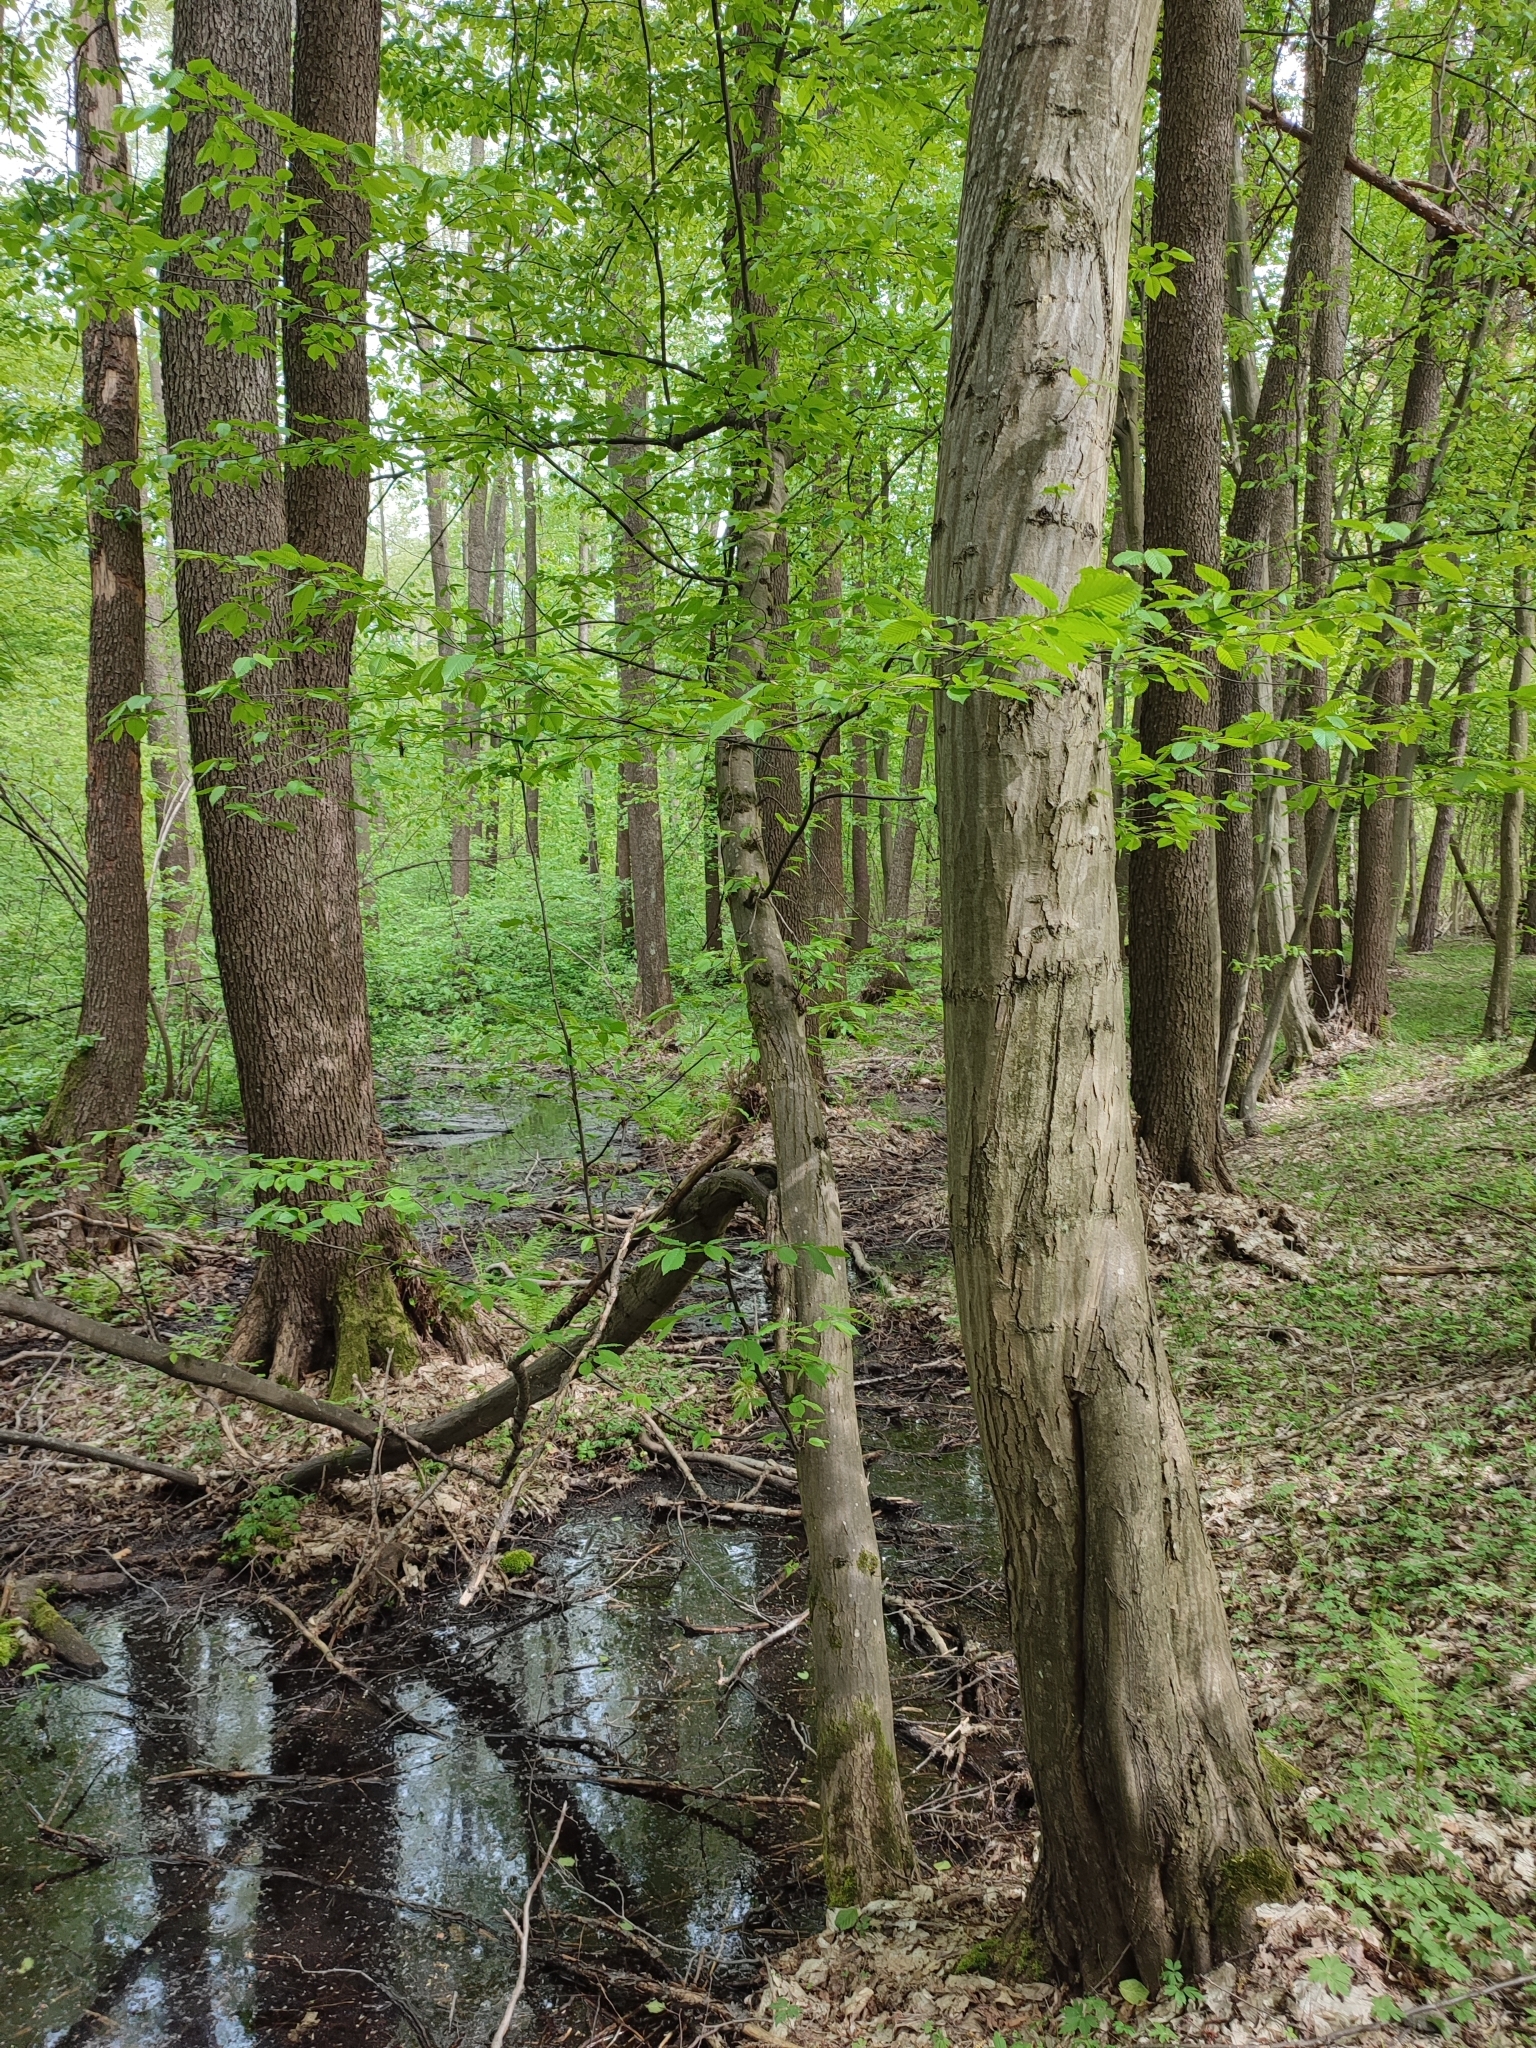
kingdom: Plantae
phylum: Tracheophyta
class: Magnoliopsida
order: Fagales
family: Betulaceae
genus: Carpinus
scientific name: Carpinus betulus
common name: Hornbeam
